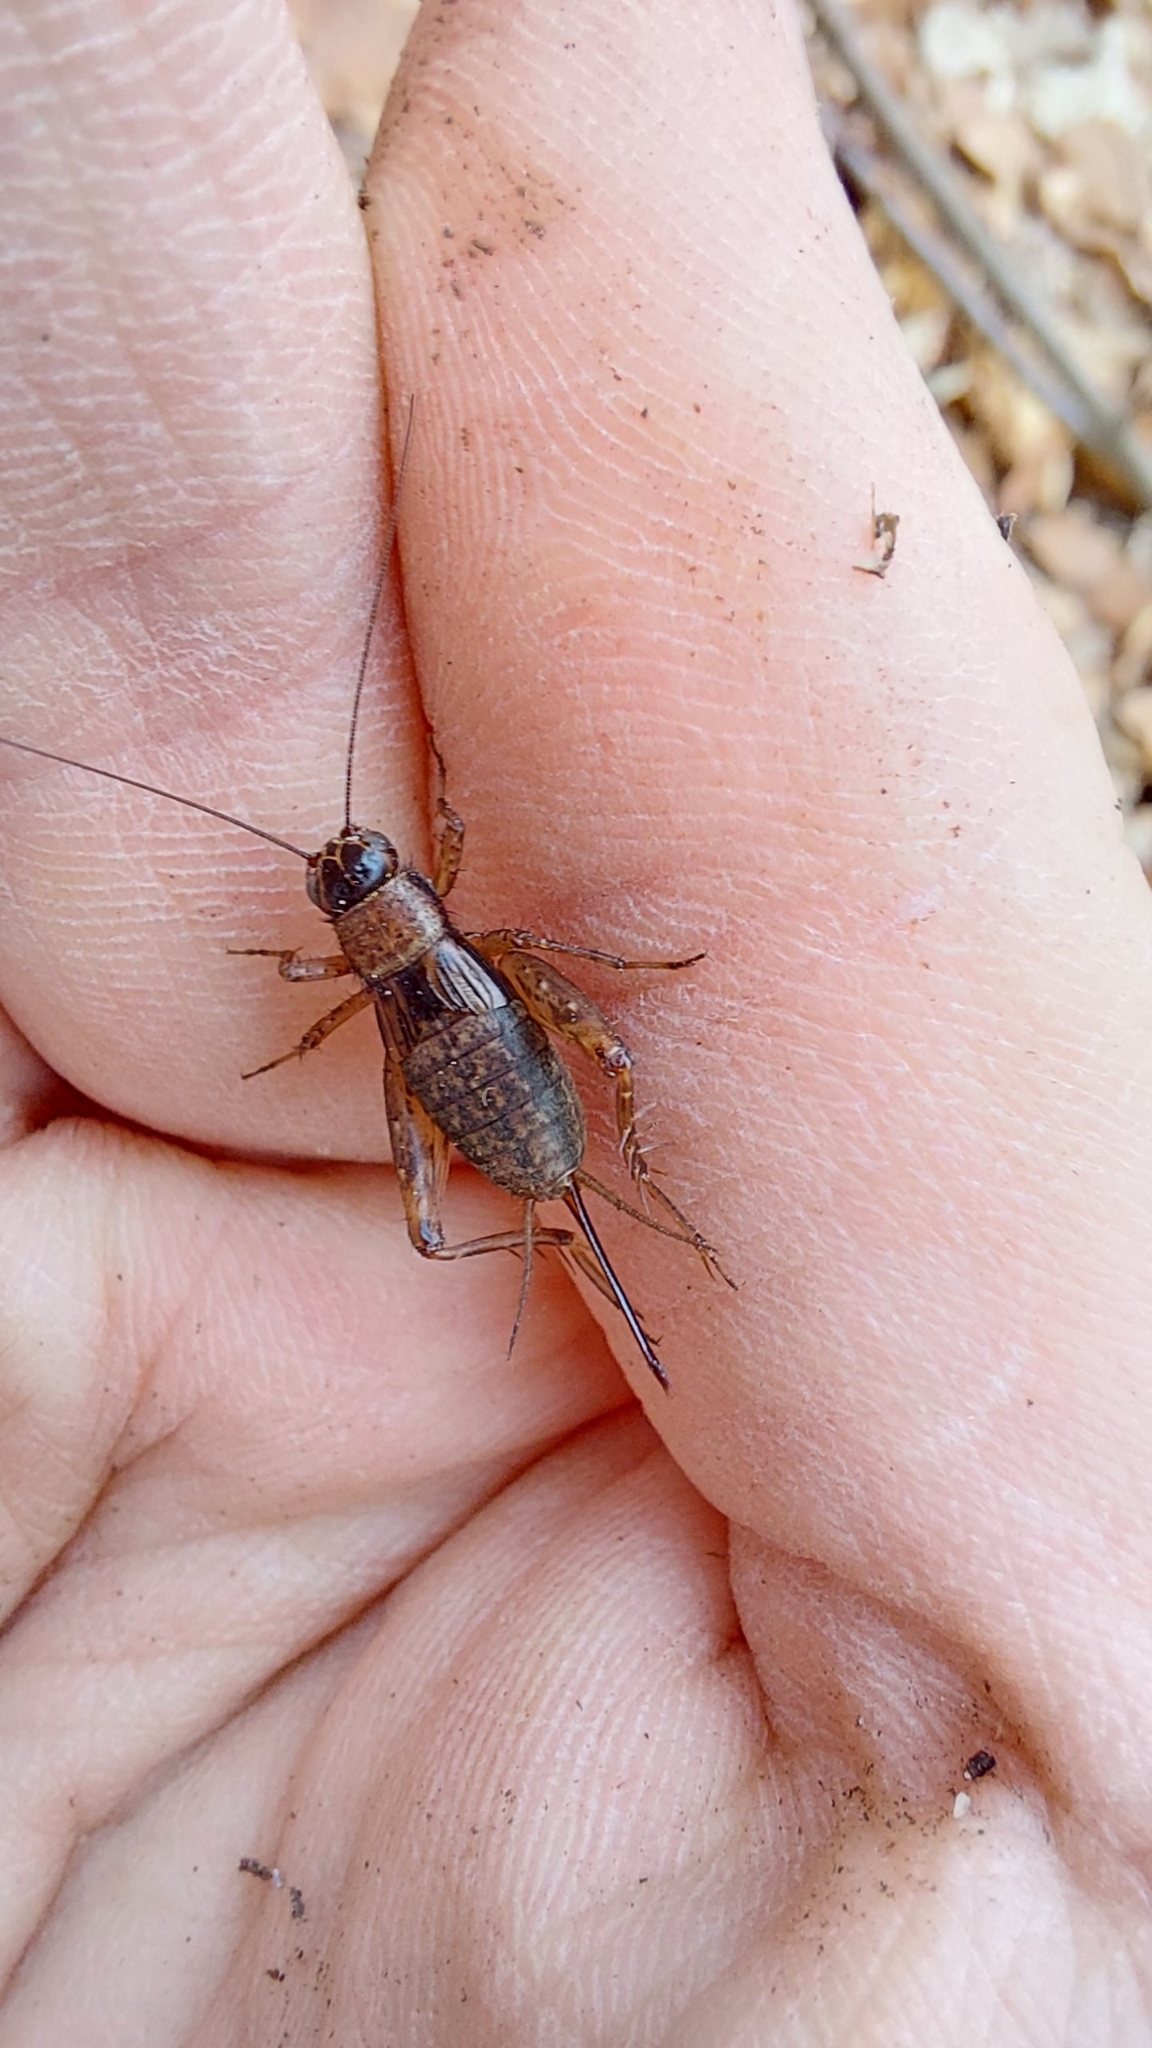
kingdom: Animalia
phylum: Arthropoda
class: Insecta
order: Orthoptera
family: Trigonidiidae
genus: Nemobius
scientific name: Nemobius sylvestris
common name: Wood-cricket
